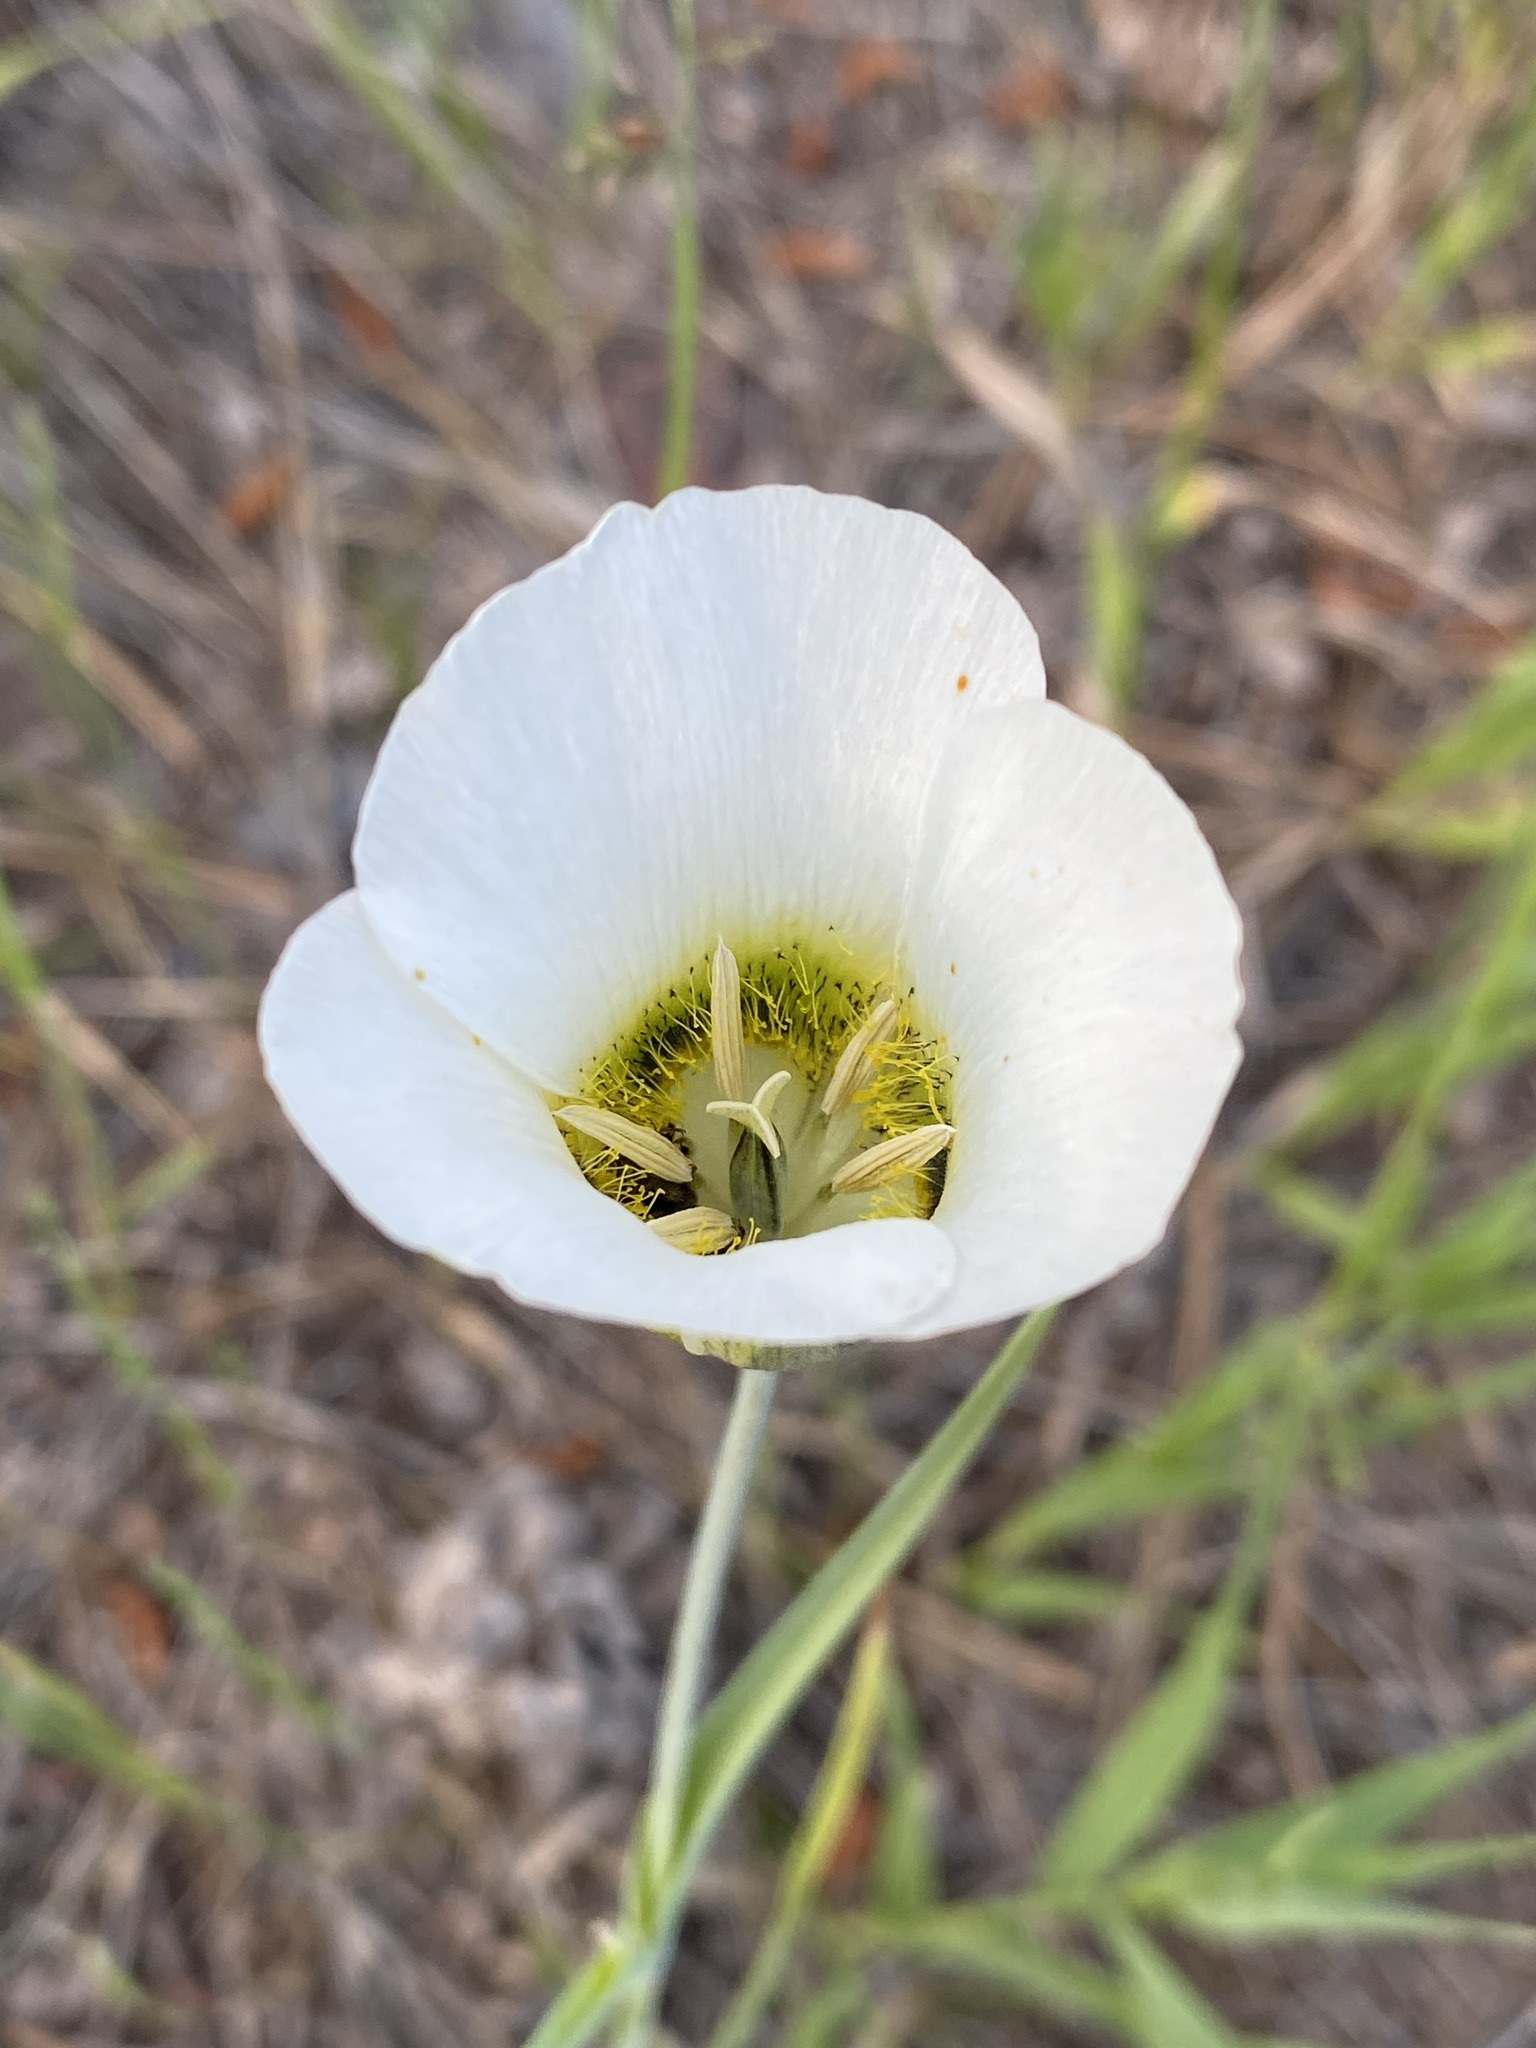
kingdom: Plantae
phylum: Tracheophyta
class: Liliopsida
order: Liliales
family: Liliaceae
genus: Calochortus
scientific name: Calochortus gunnisonii
